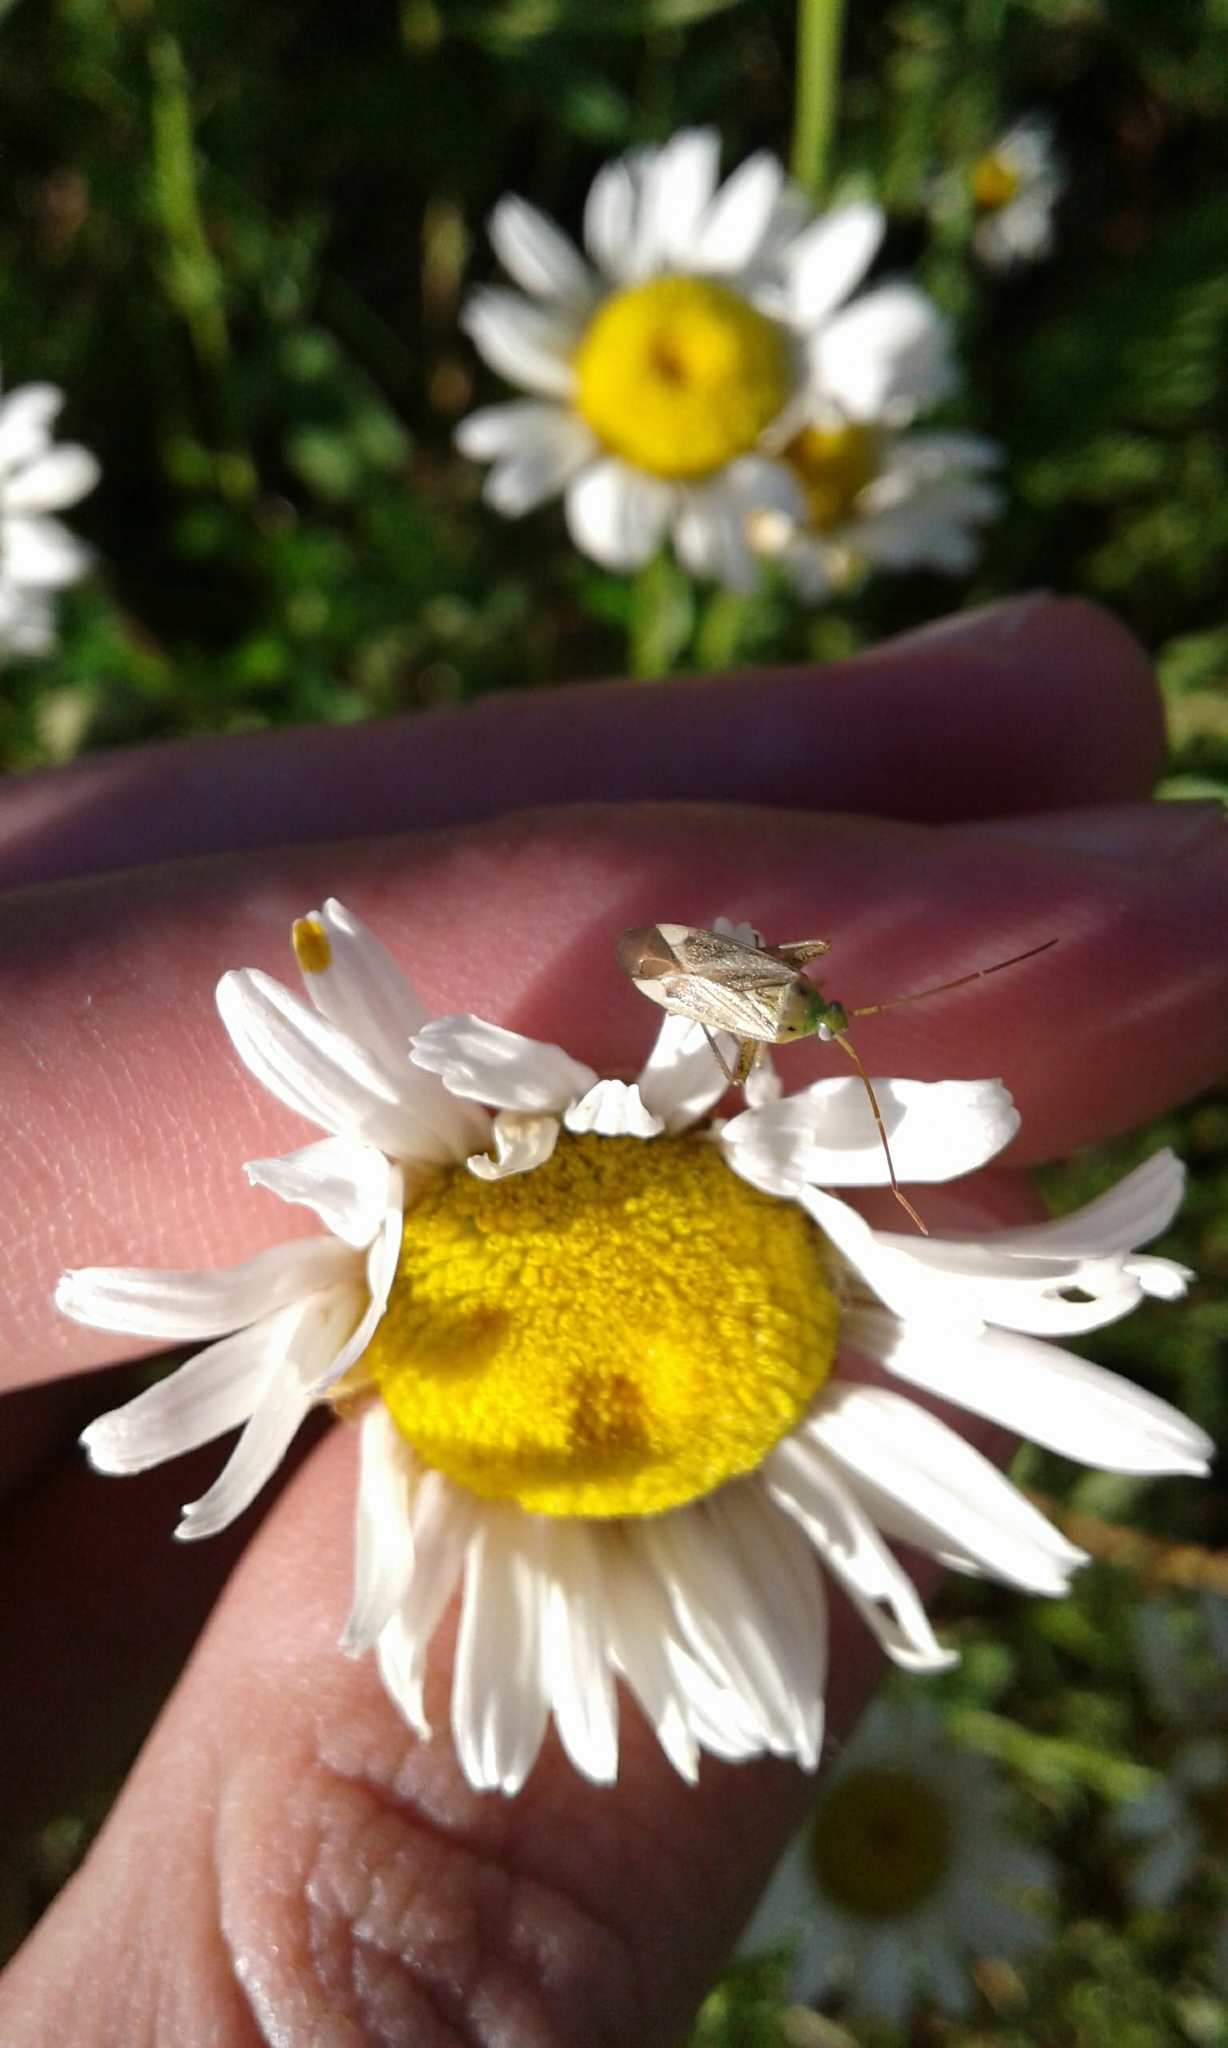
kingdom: Animalia
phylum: Arthropoda
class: Insecta
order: Hemiptera
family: Miridae
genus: Adelphocoris
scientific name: Adelphocoris lineolatus
